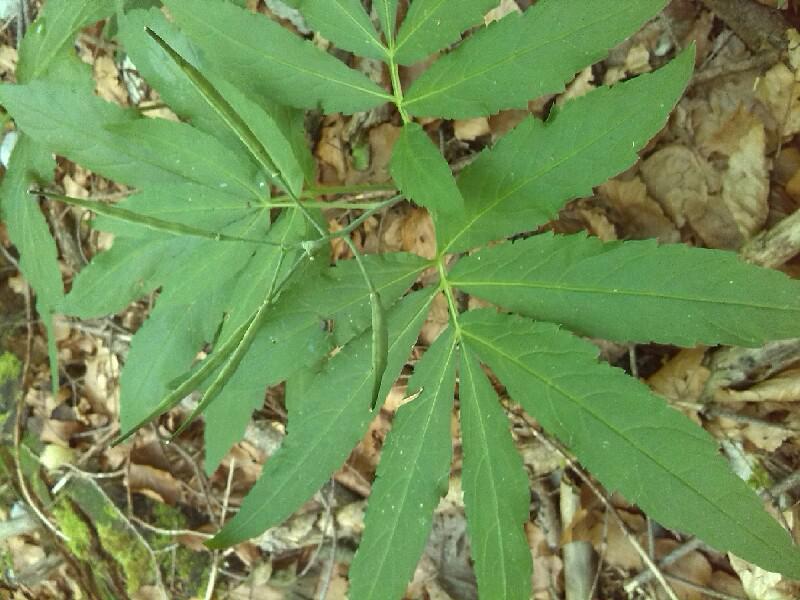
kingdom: Plantae
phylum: Tracheophyta
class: Magnoliopsida
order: Brassicales
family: Brassicaceae
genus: Cardamine
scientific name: Cardamine heptaphylla
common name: Pinnate coralroot
